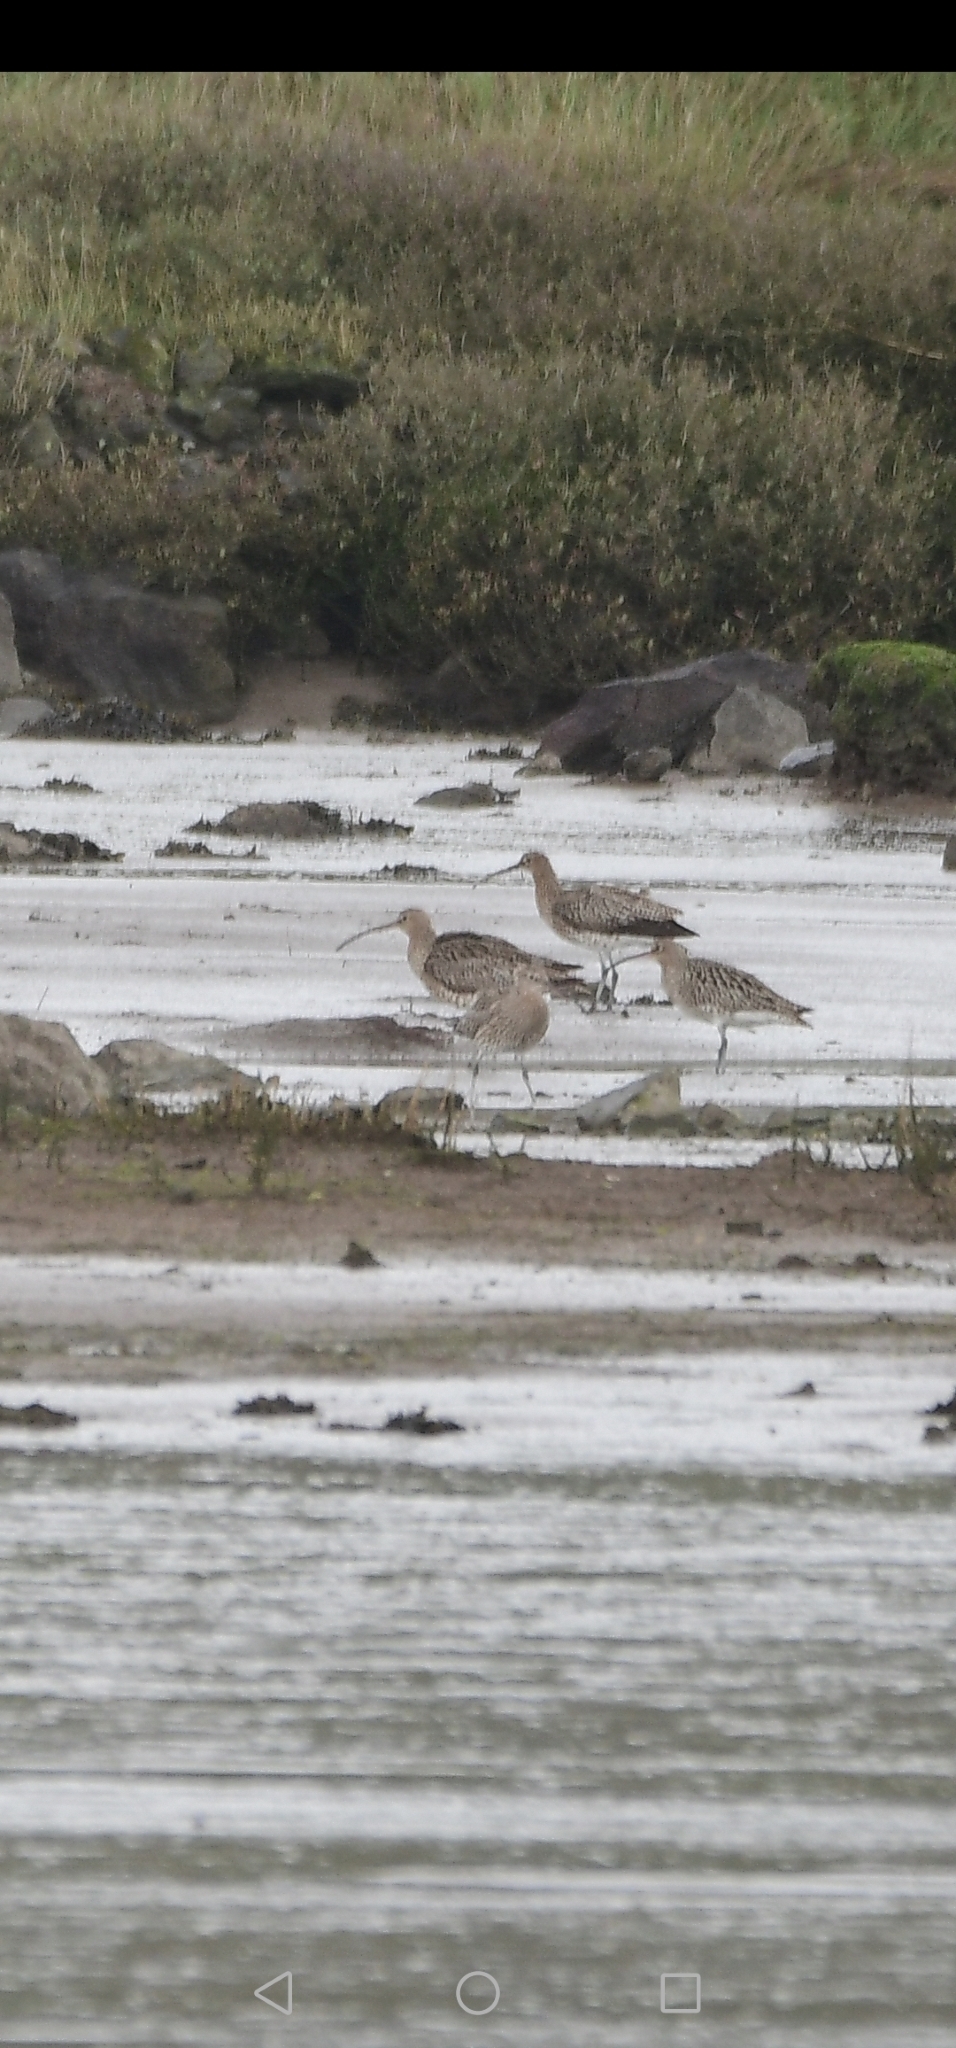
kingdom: Animalia
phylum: Chordata
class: Aves
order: Charadriiformes
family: Scolopacidae
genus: Numenius
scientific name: Numenius arquata
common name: Eurasian curlew
